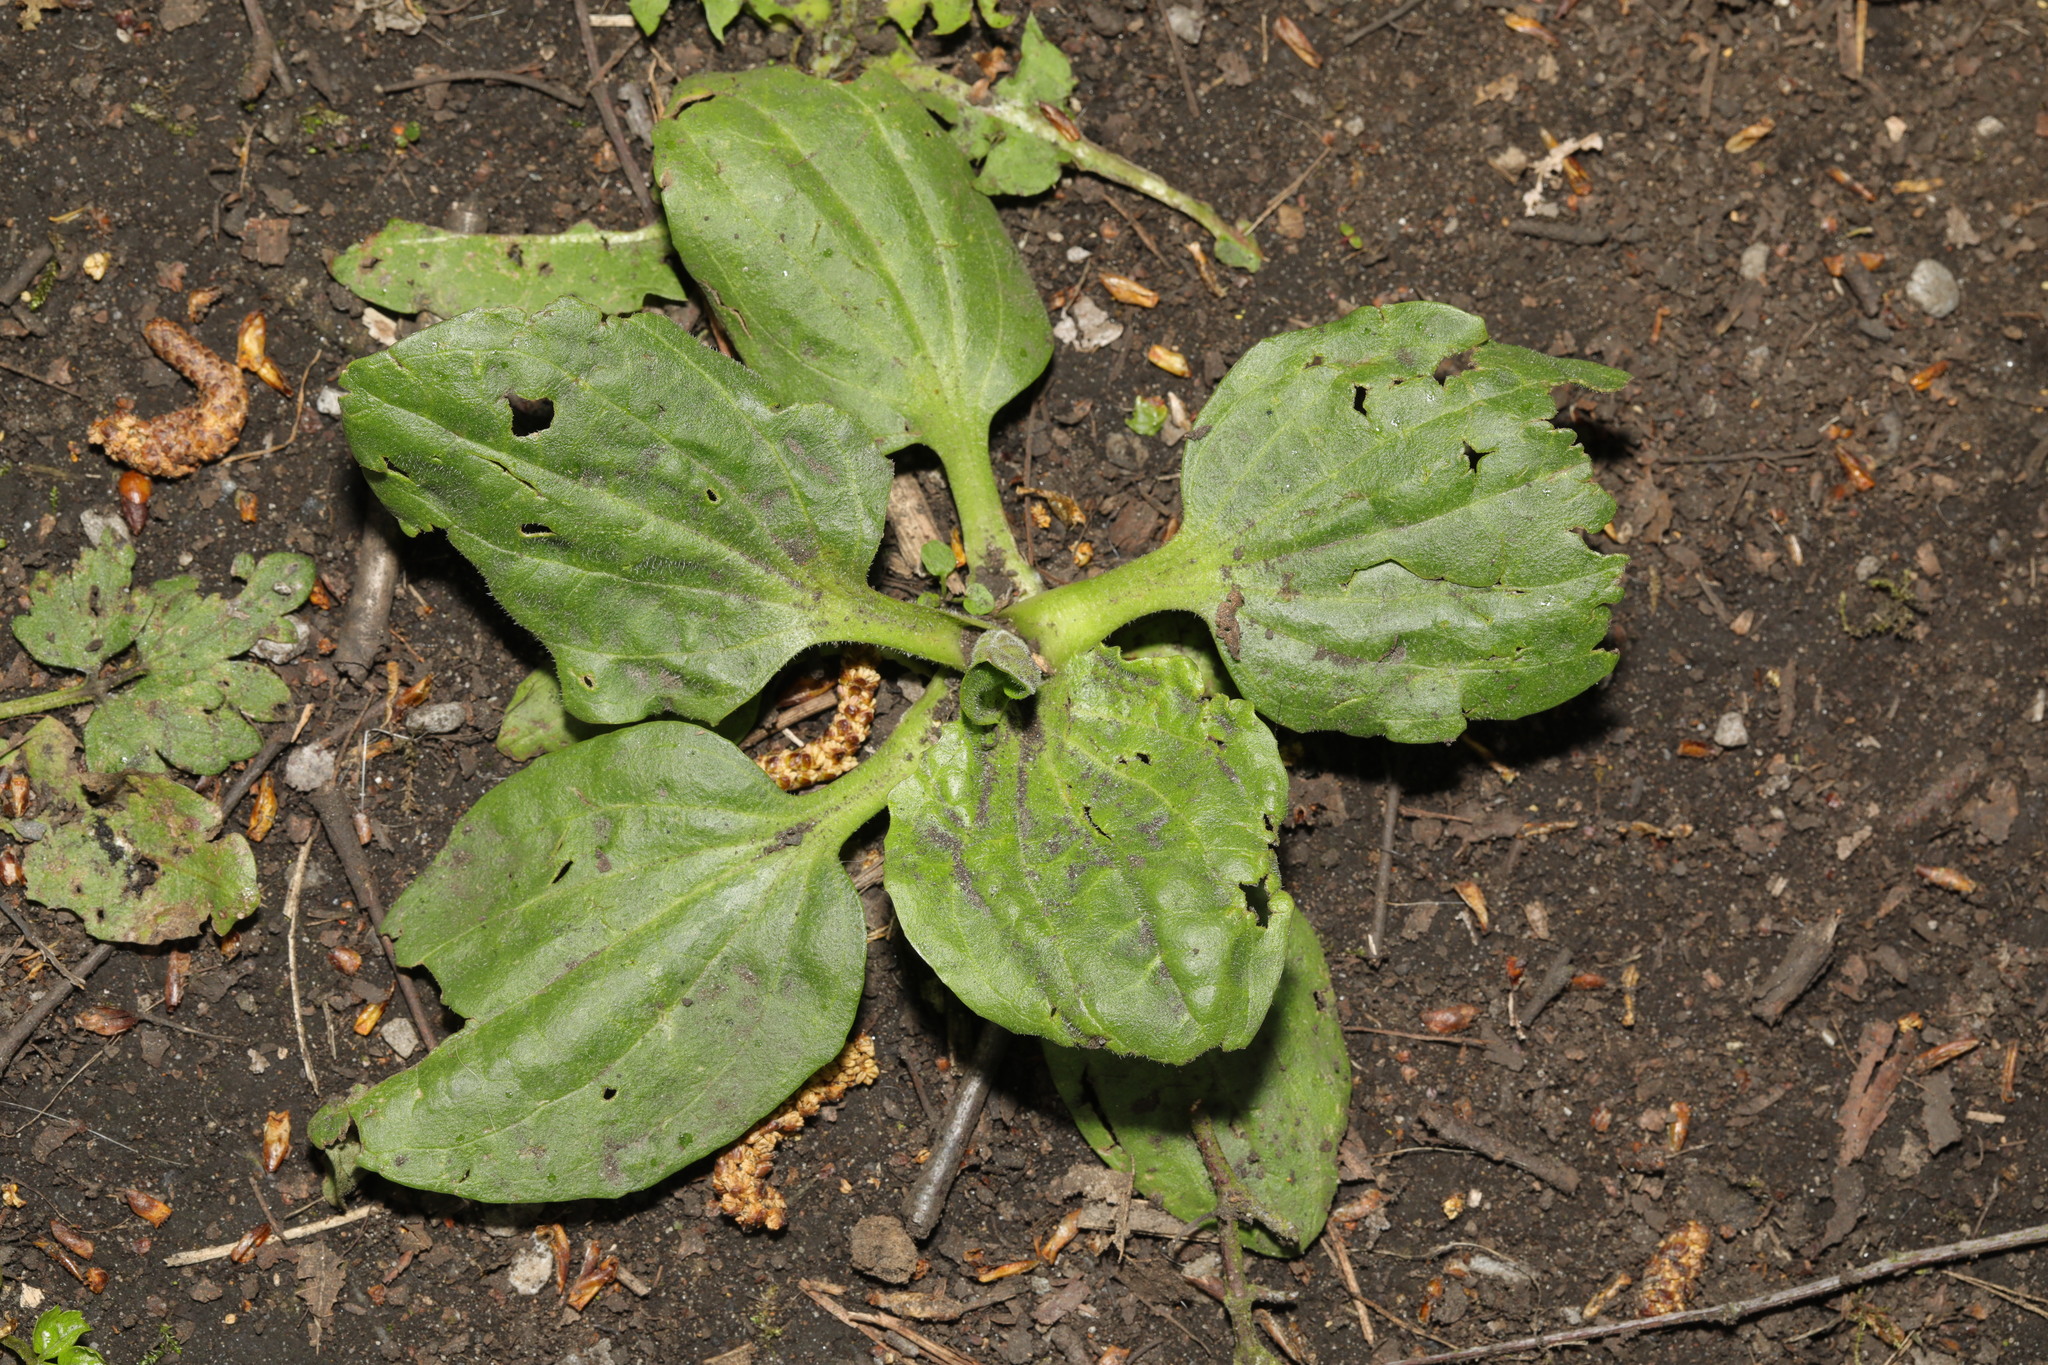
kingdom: Plantae
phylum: Tracheophyta
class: Magnoliopsida
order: Lamiales
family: Plantaginaceae
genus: Plantago
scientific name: Plantago major
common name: Common plantain
